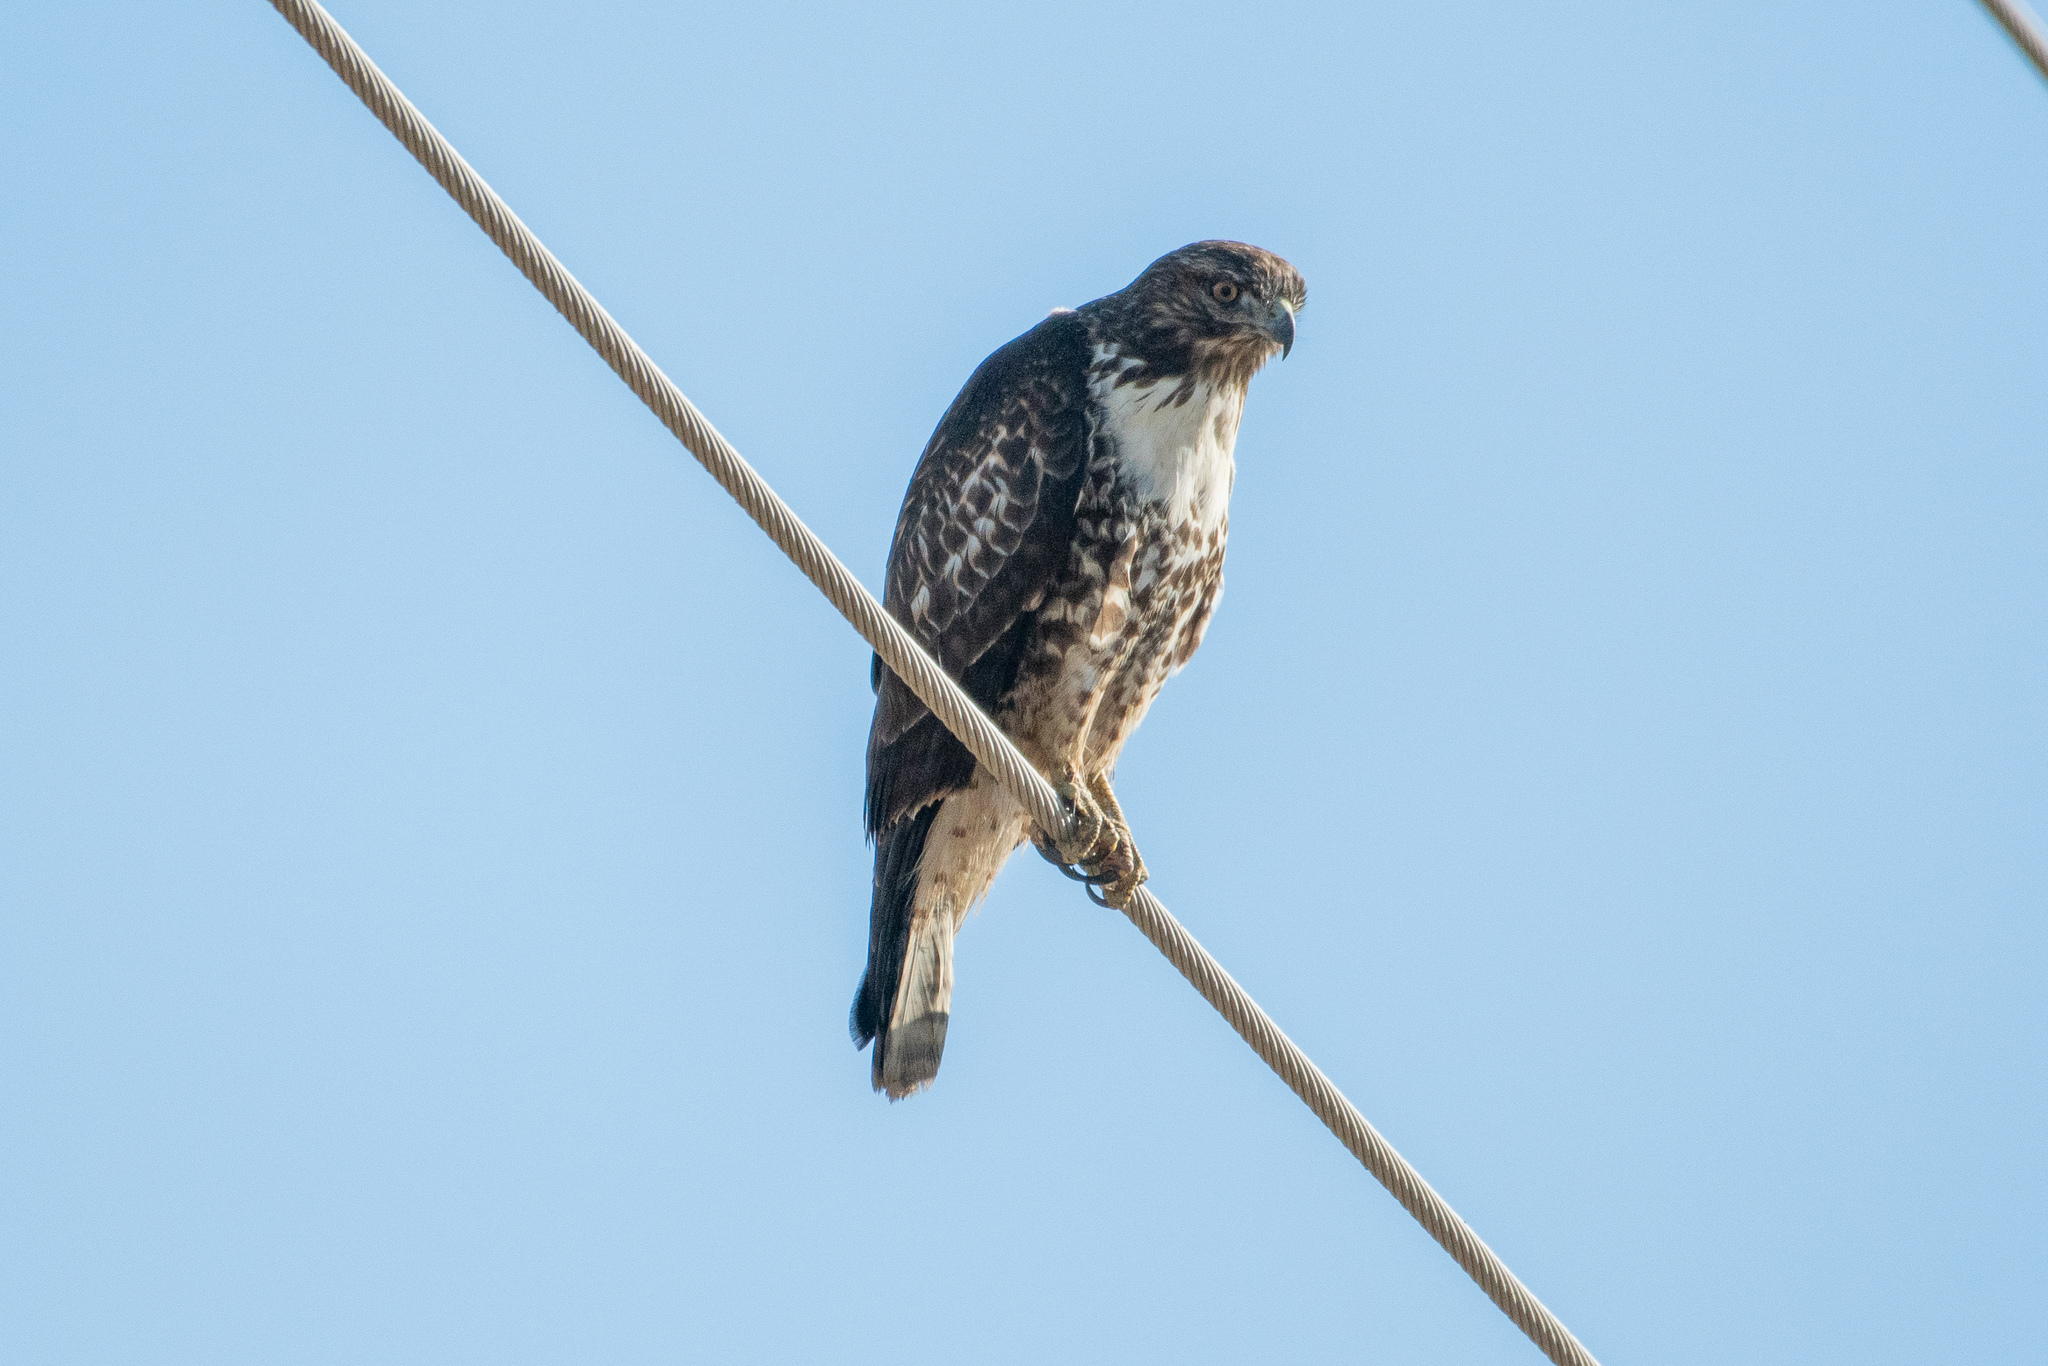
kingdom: Animalia
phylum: Chordata
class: Aves
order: Accipitriformes
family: Accipitridae
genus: Buteo
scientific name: Buteo jamaicensis
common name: Red-tailed hawk
